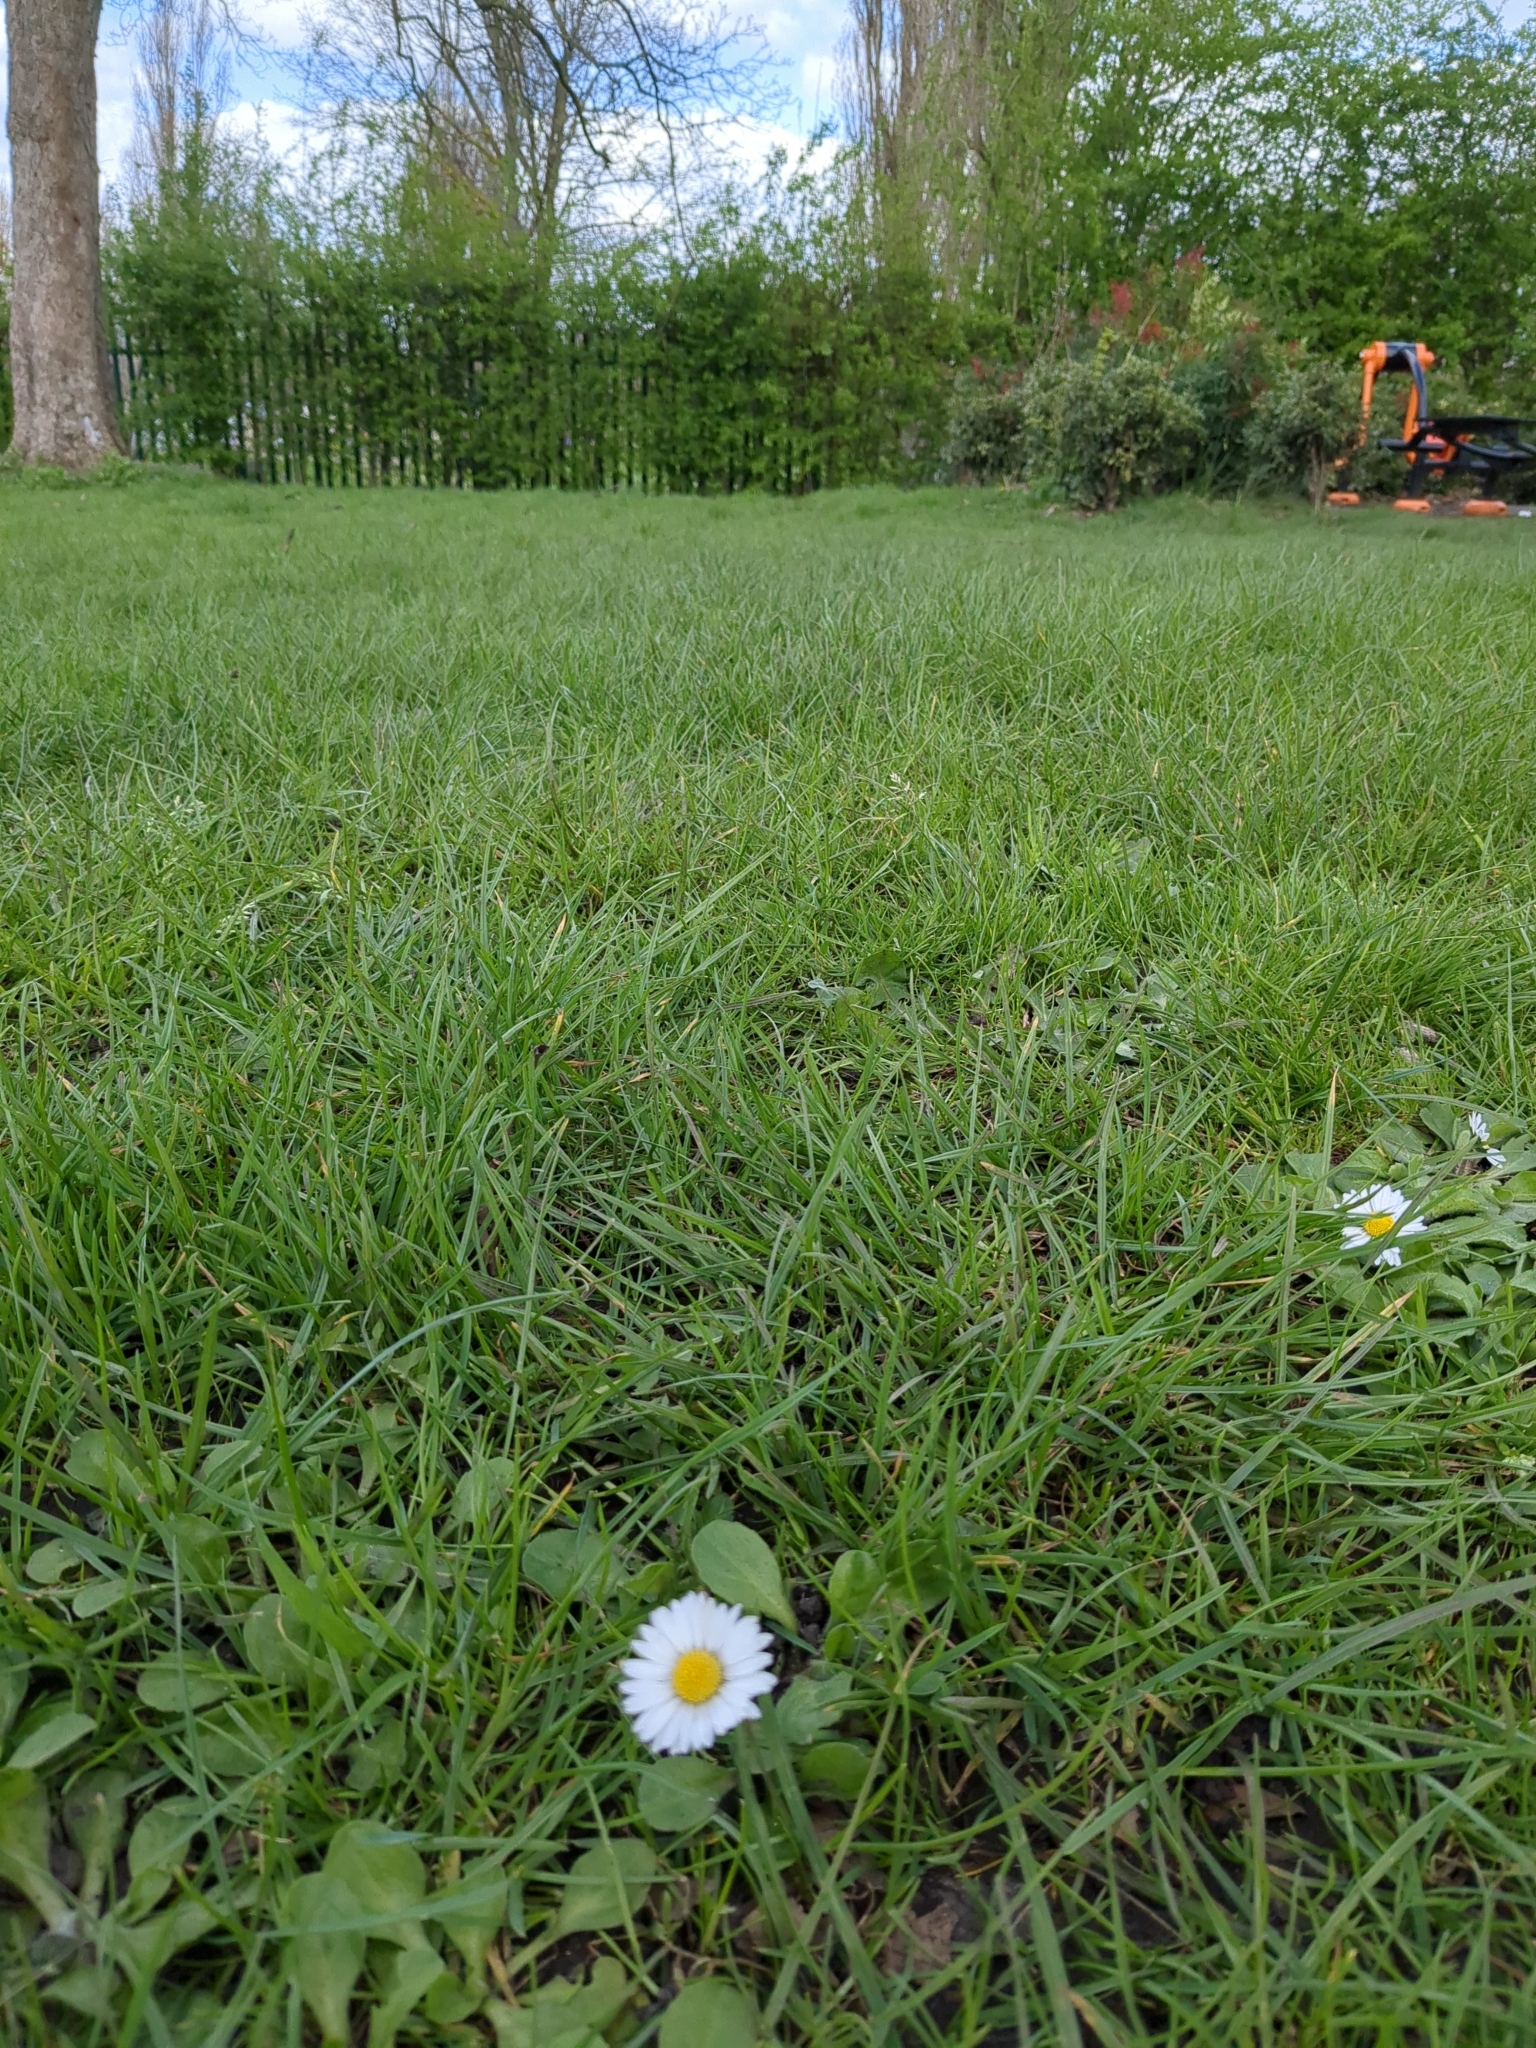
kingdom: Plantae
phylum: Tracheophyta
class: Magnoliopsida
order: Asterales
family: Asteraceae
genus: Bellis
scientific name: Bellis perennis
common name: Lawndaisy
